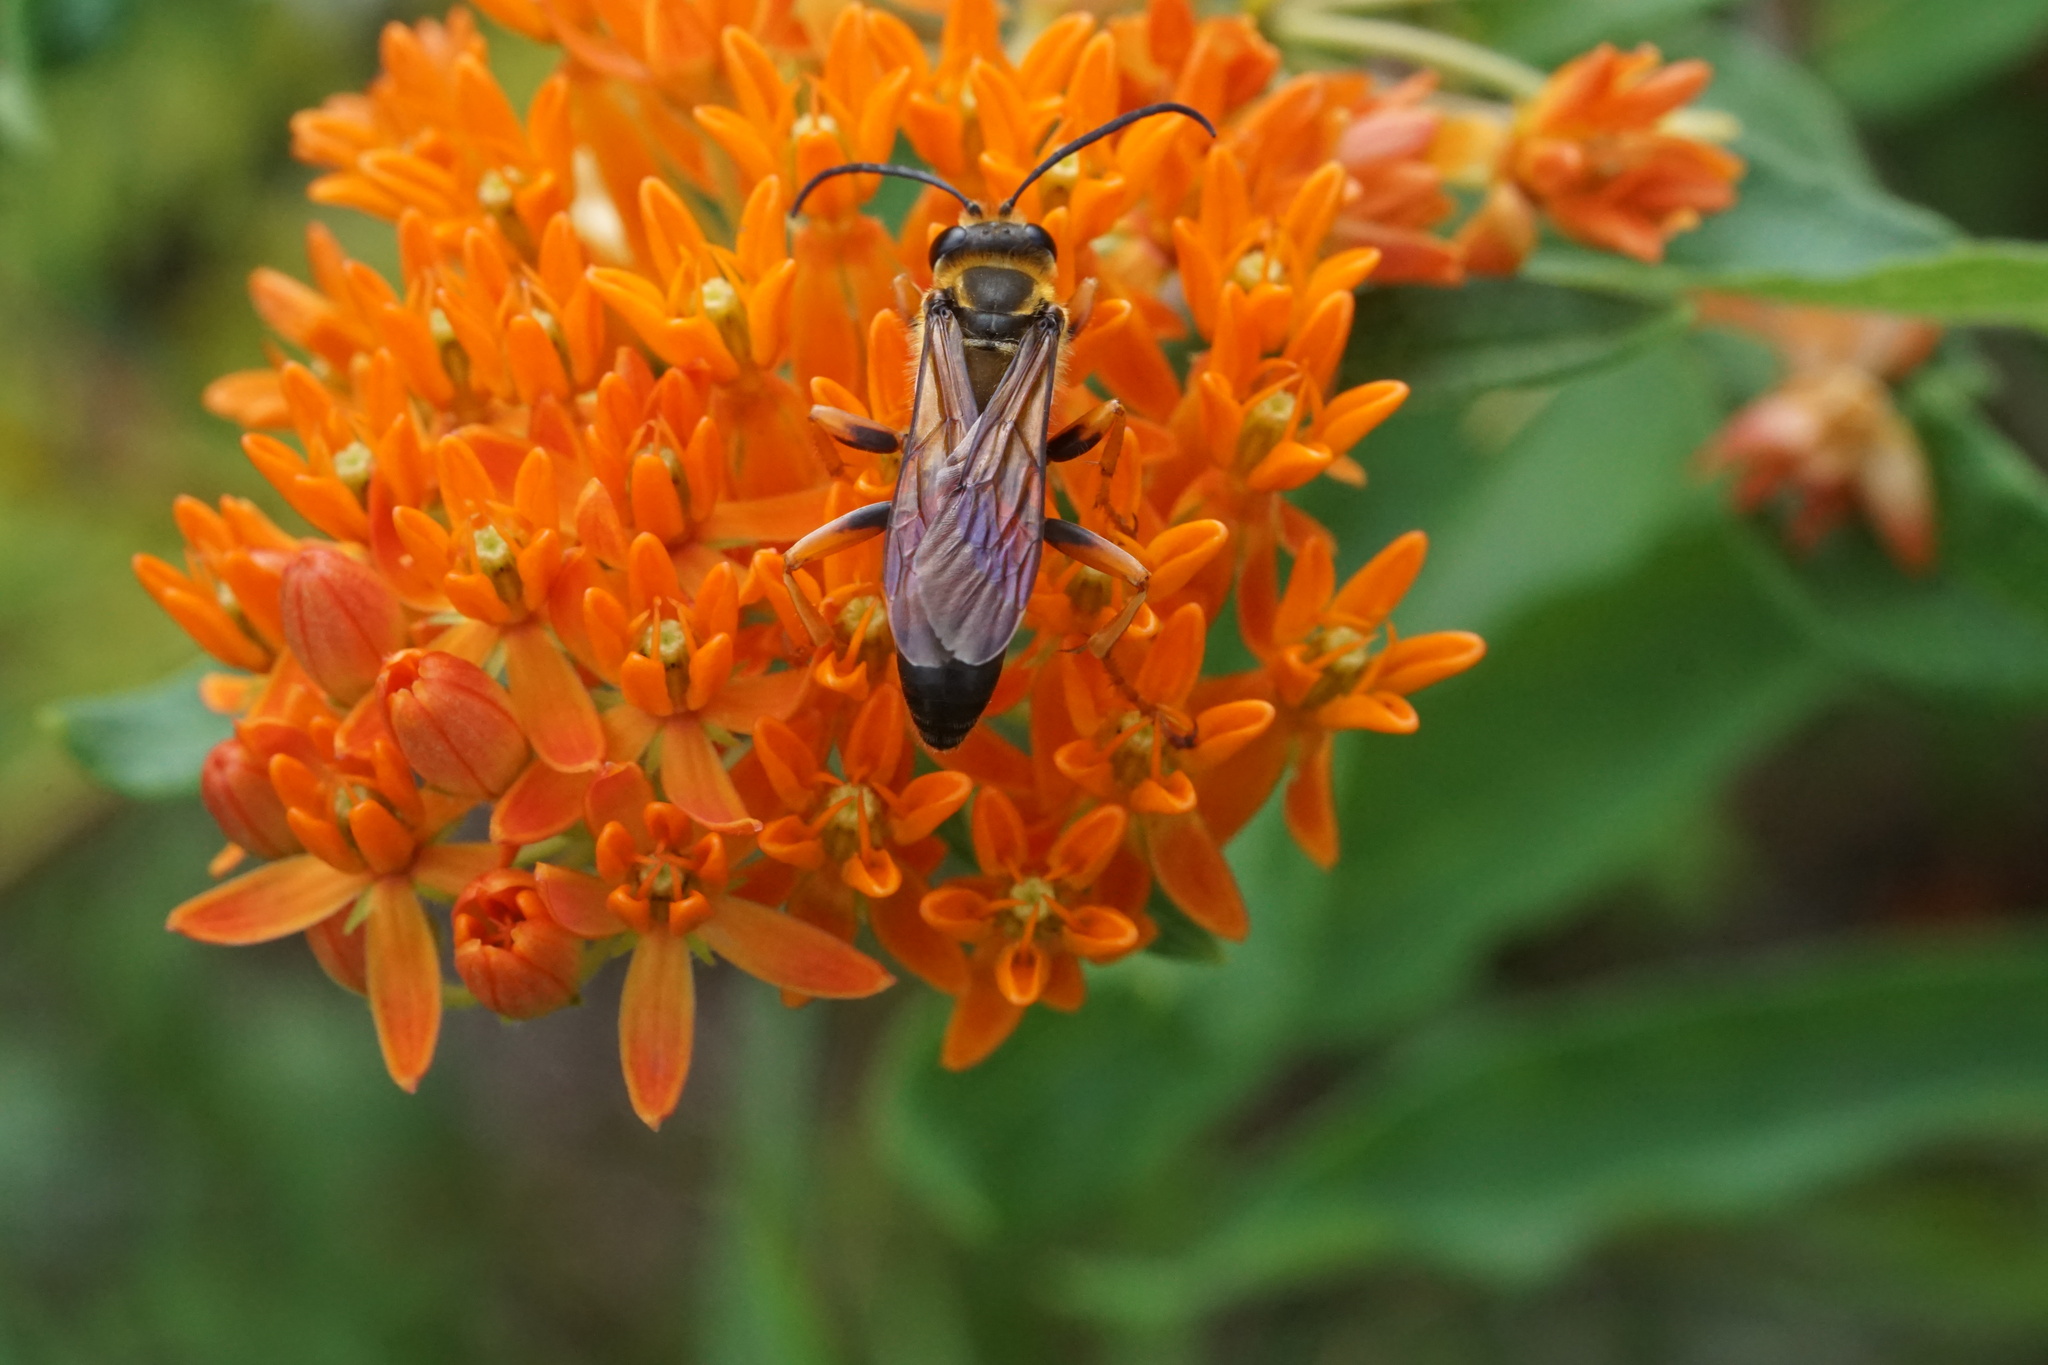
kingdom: Animalia
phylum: Arthropoda
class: Insecta
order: Hymenoptera
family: Sphecidae
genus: Sphex
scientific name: Sphex ichneumoneus
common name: Great golden digger wasp
